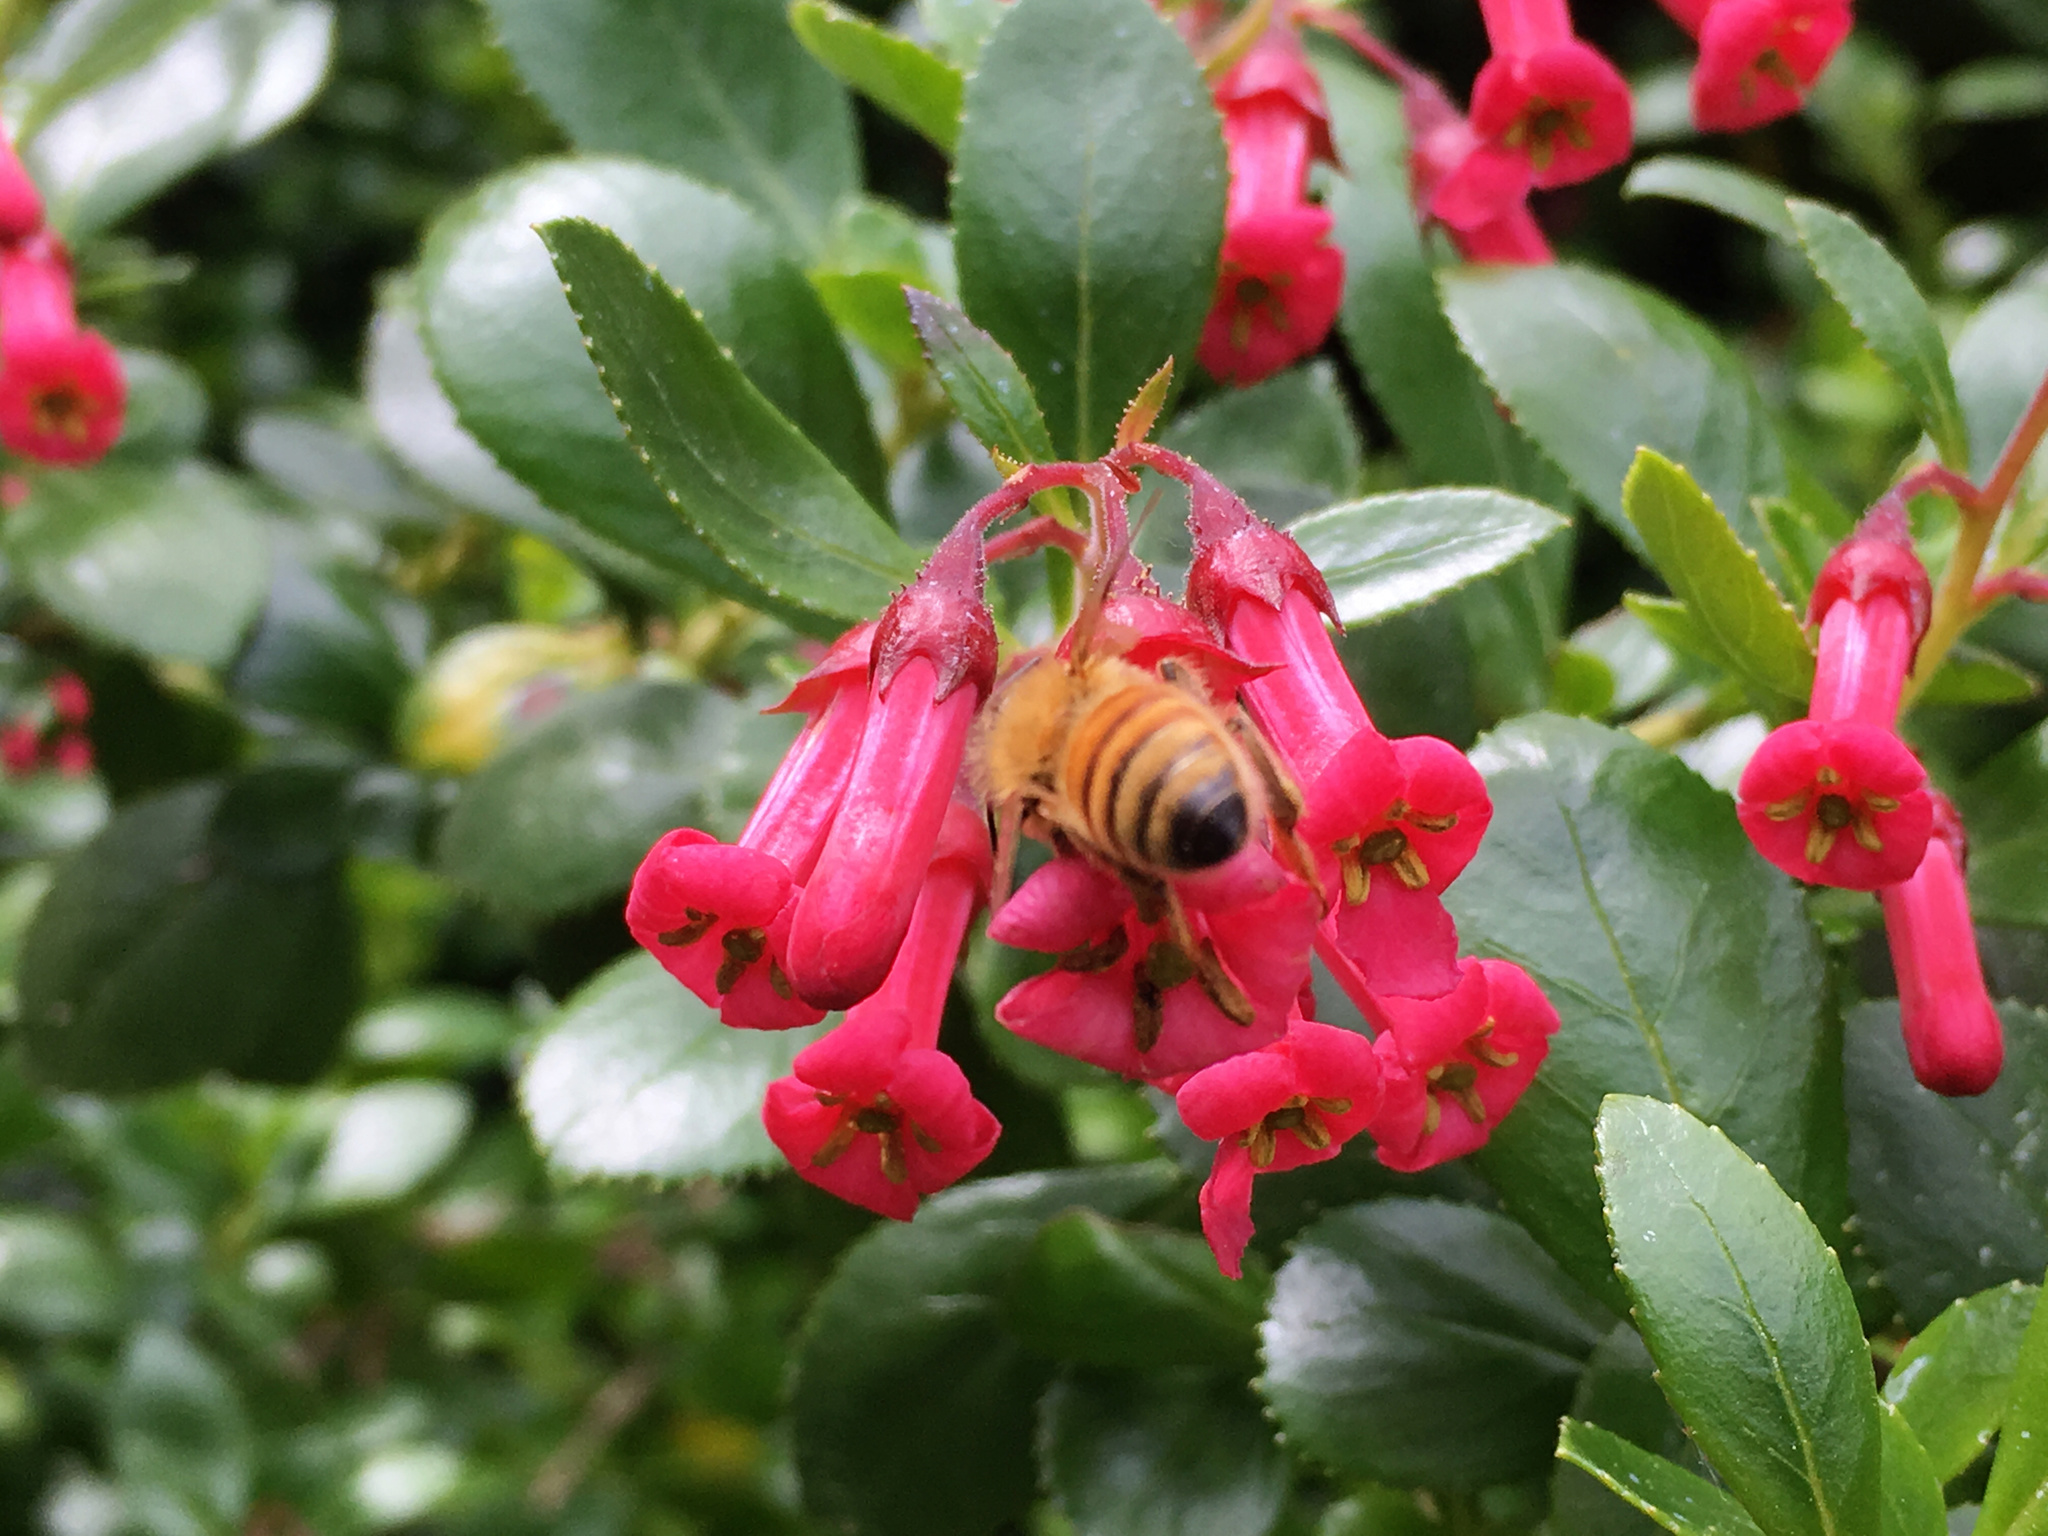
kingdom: Animalia
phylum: Arthropoda
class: Insecta
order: Hymenoptera
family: Apidae
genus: Apis
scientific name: Apis mellifera
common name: Honey bee
